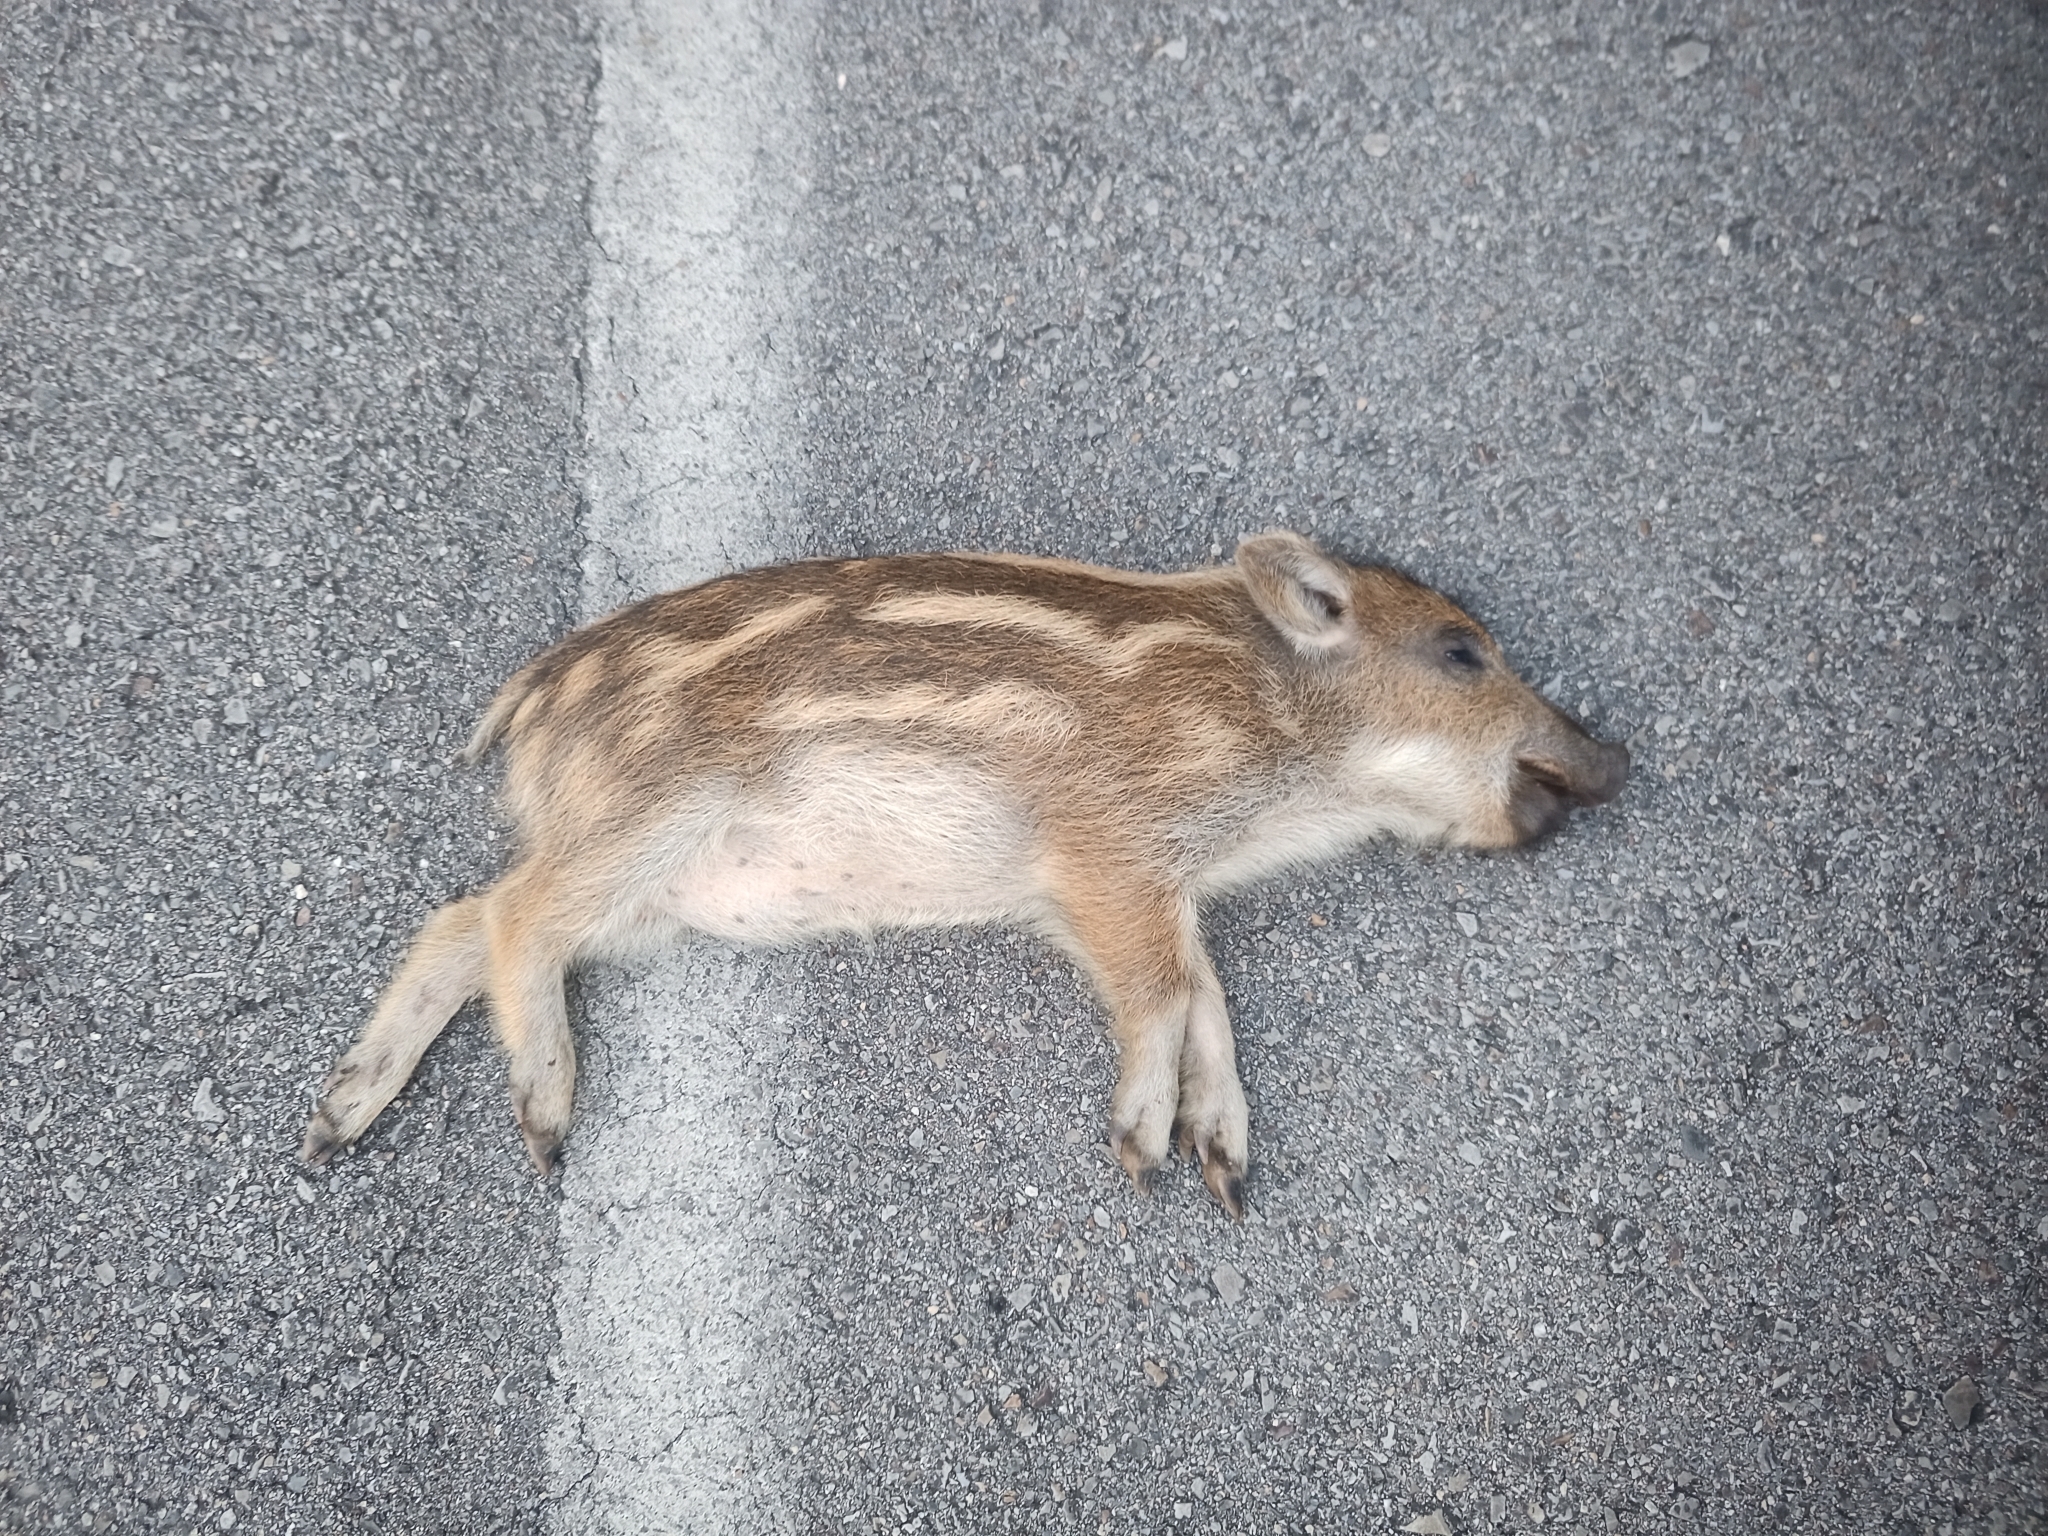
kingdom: Animalia
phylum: Chordata
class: Mammalia
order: Artiodactyla
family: Suidae
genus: Sus
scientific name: Sus scrofa
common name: Wild boar
